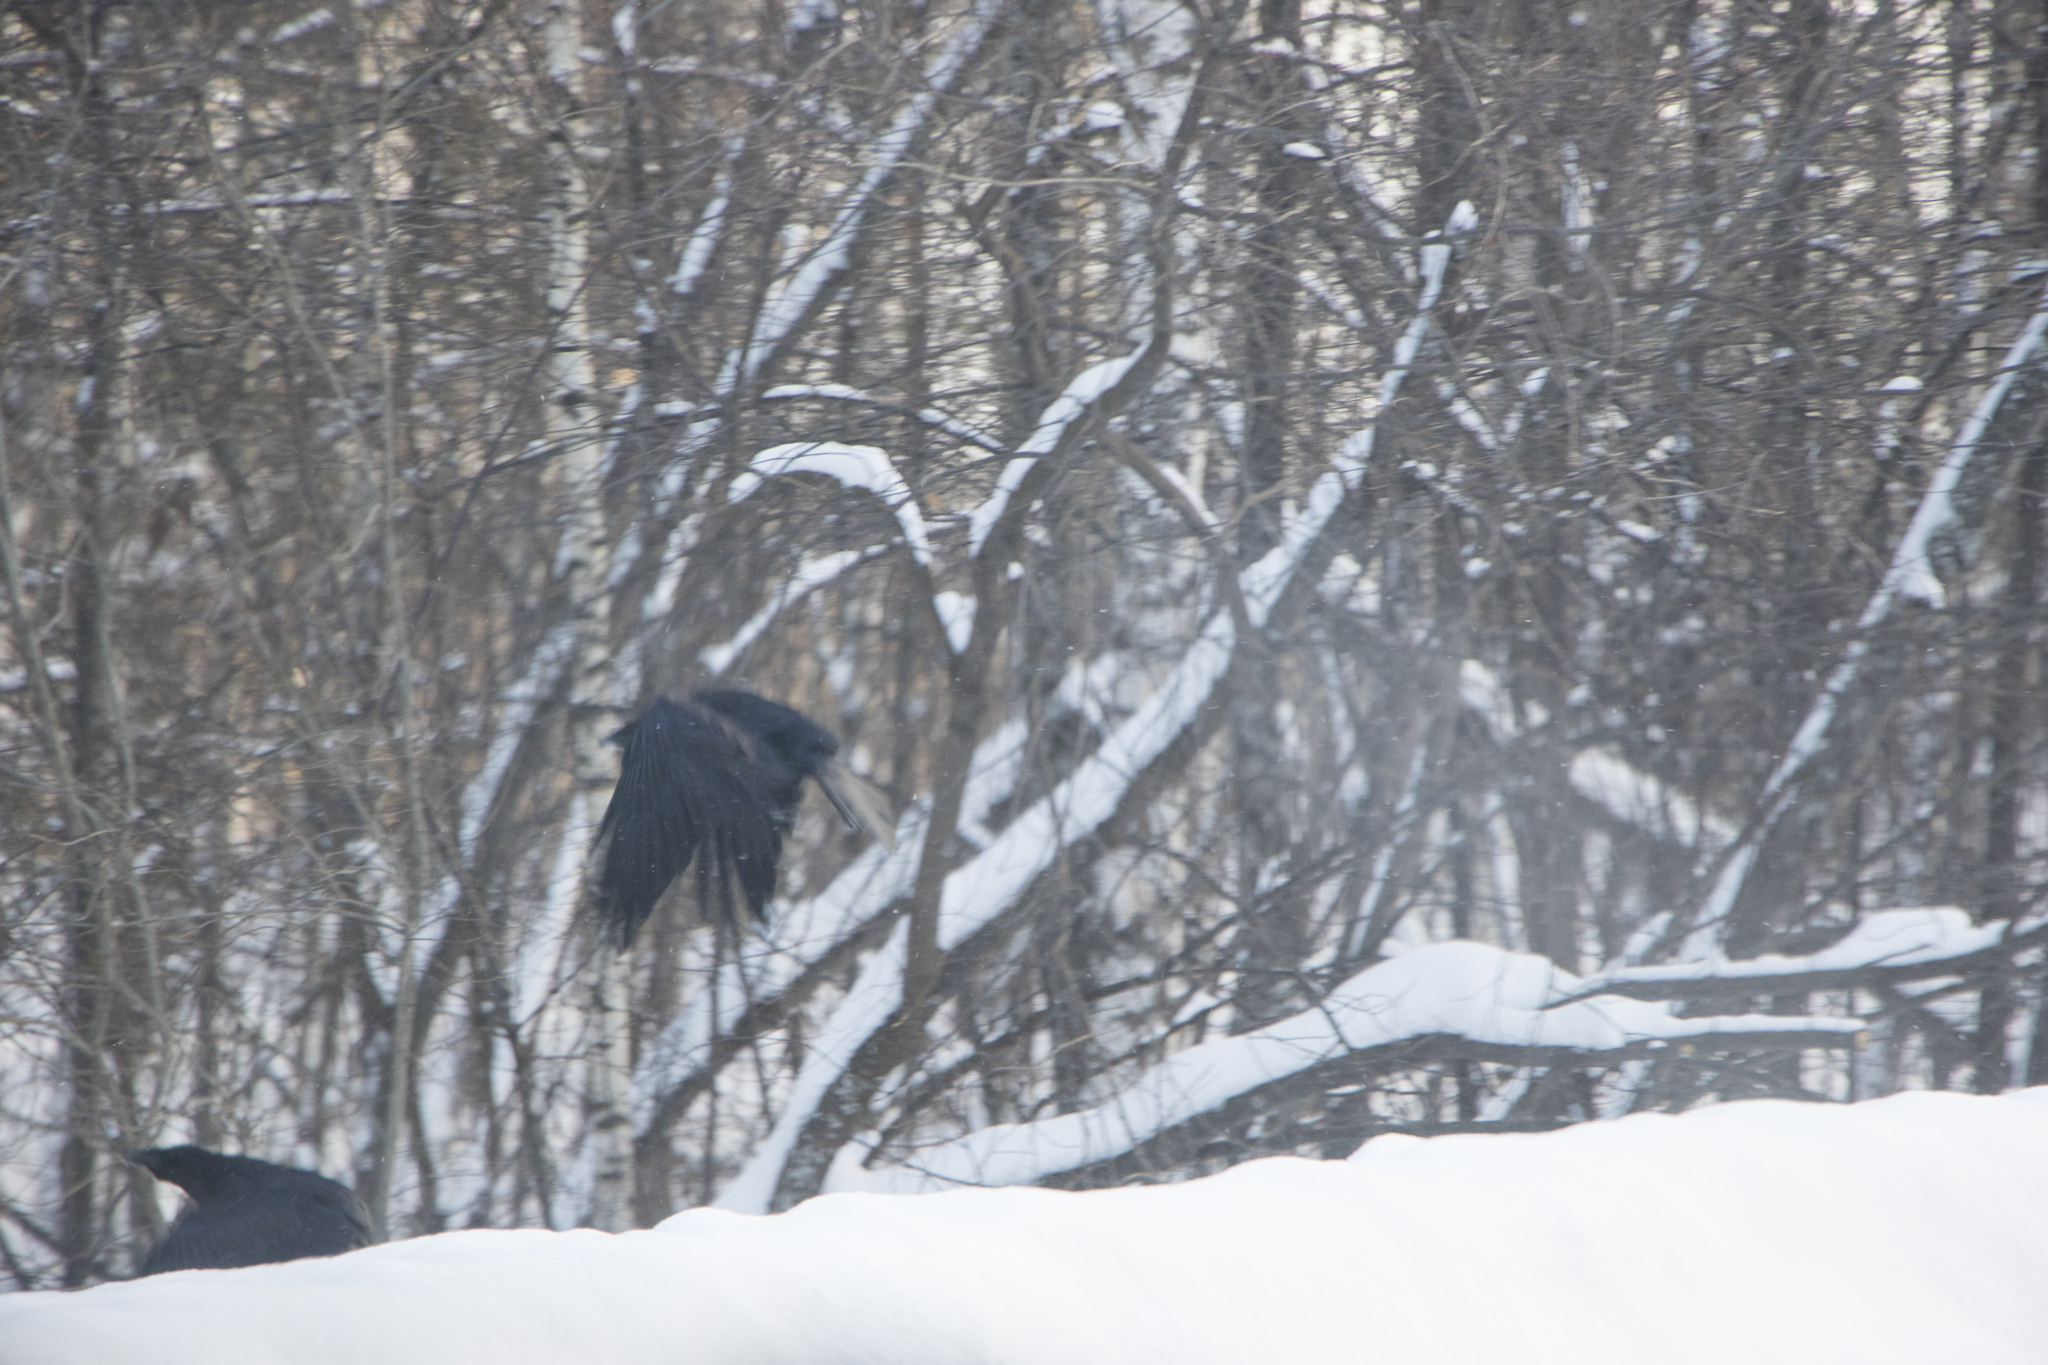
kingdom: Animalia
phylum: Chordata
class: Aves
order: Passeriformes
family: Corvidae
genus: Corvus
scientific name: Corvus corax
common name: Common raven
